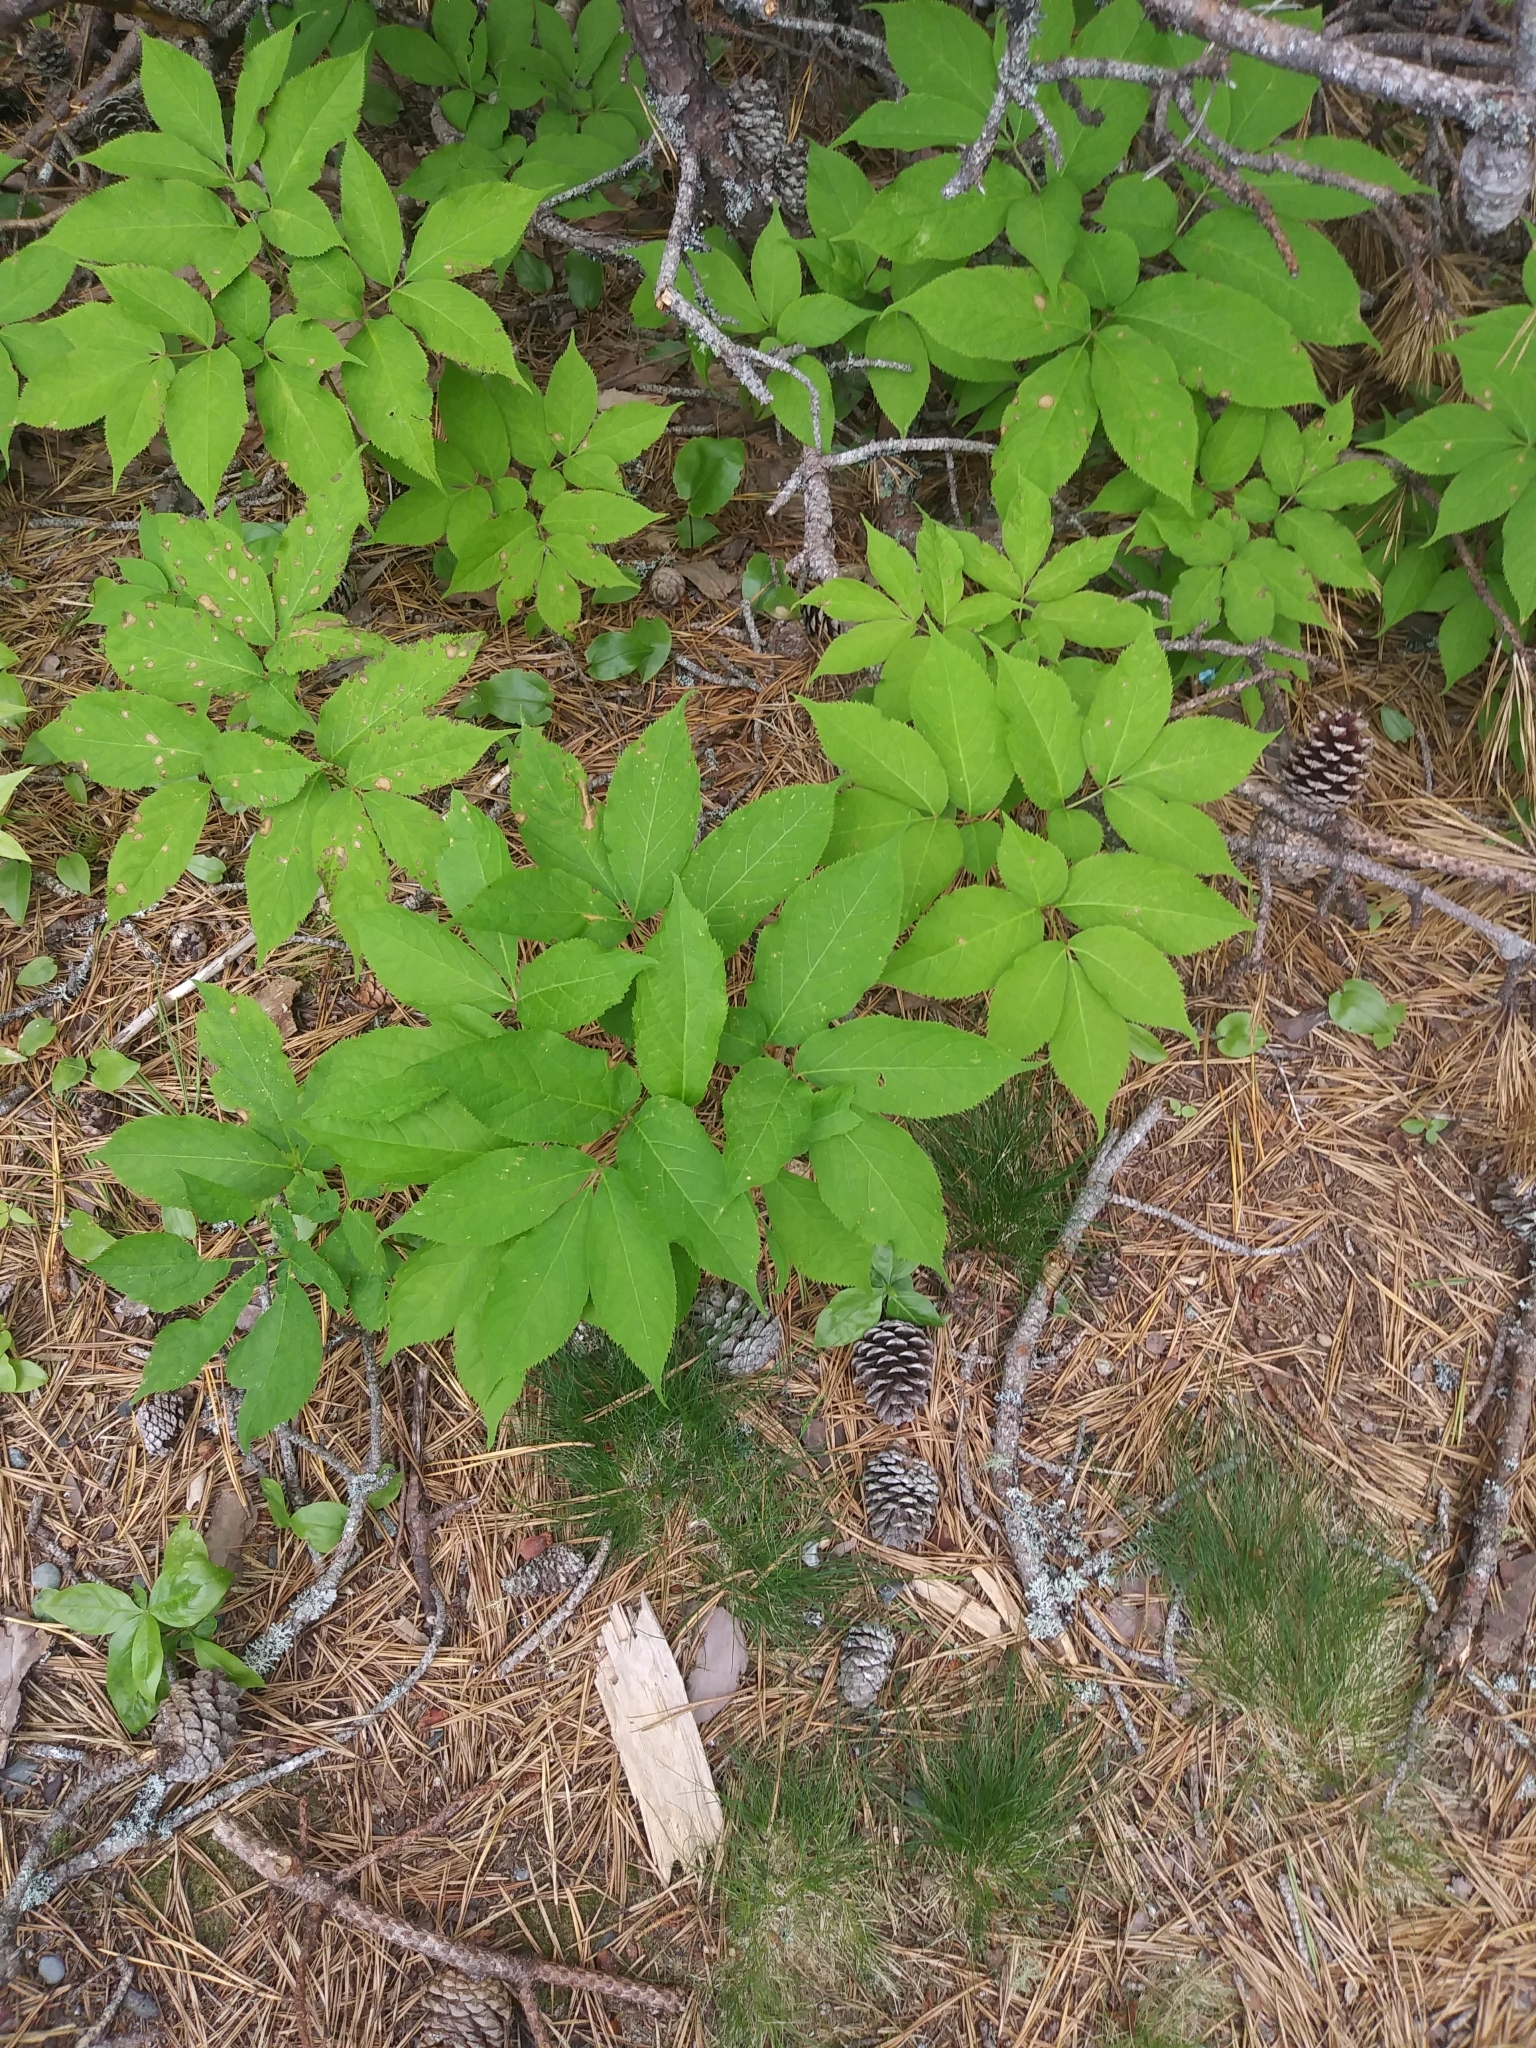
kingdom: Plantae
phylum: Tracheophyta
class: Magnoliopsida
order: Apiales
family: Araliaceae
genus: Aralia
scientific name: Aralia nudicaulis
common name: Wild sarsaparilla
